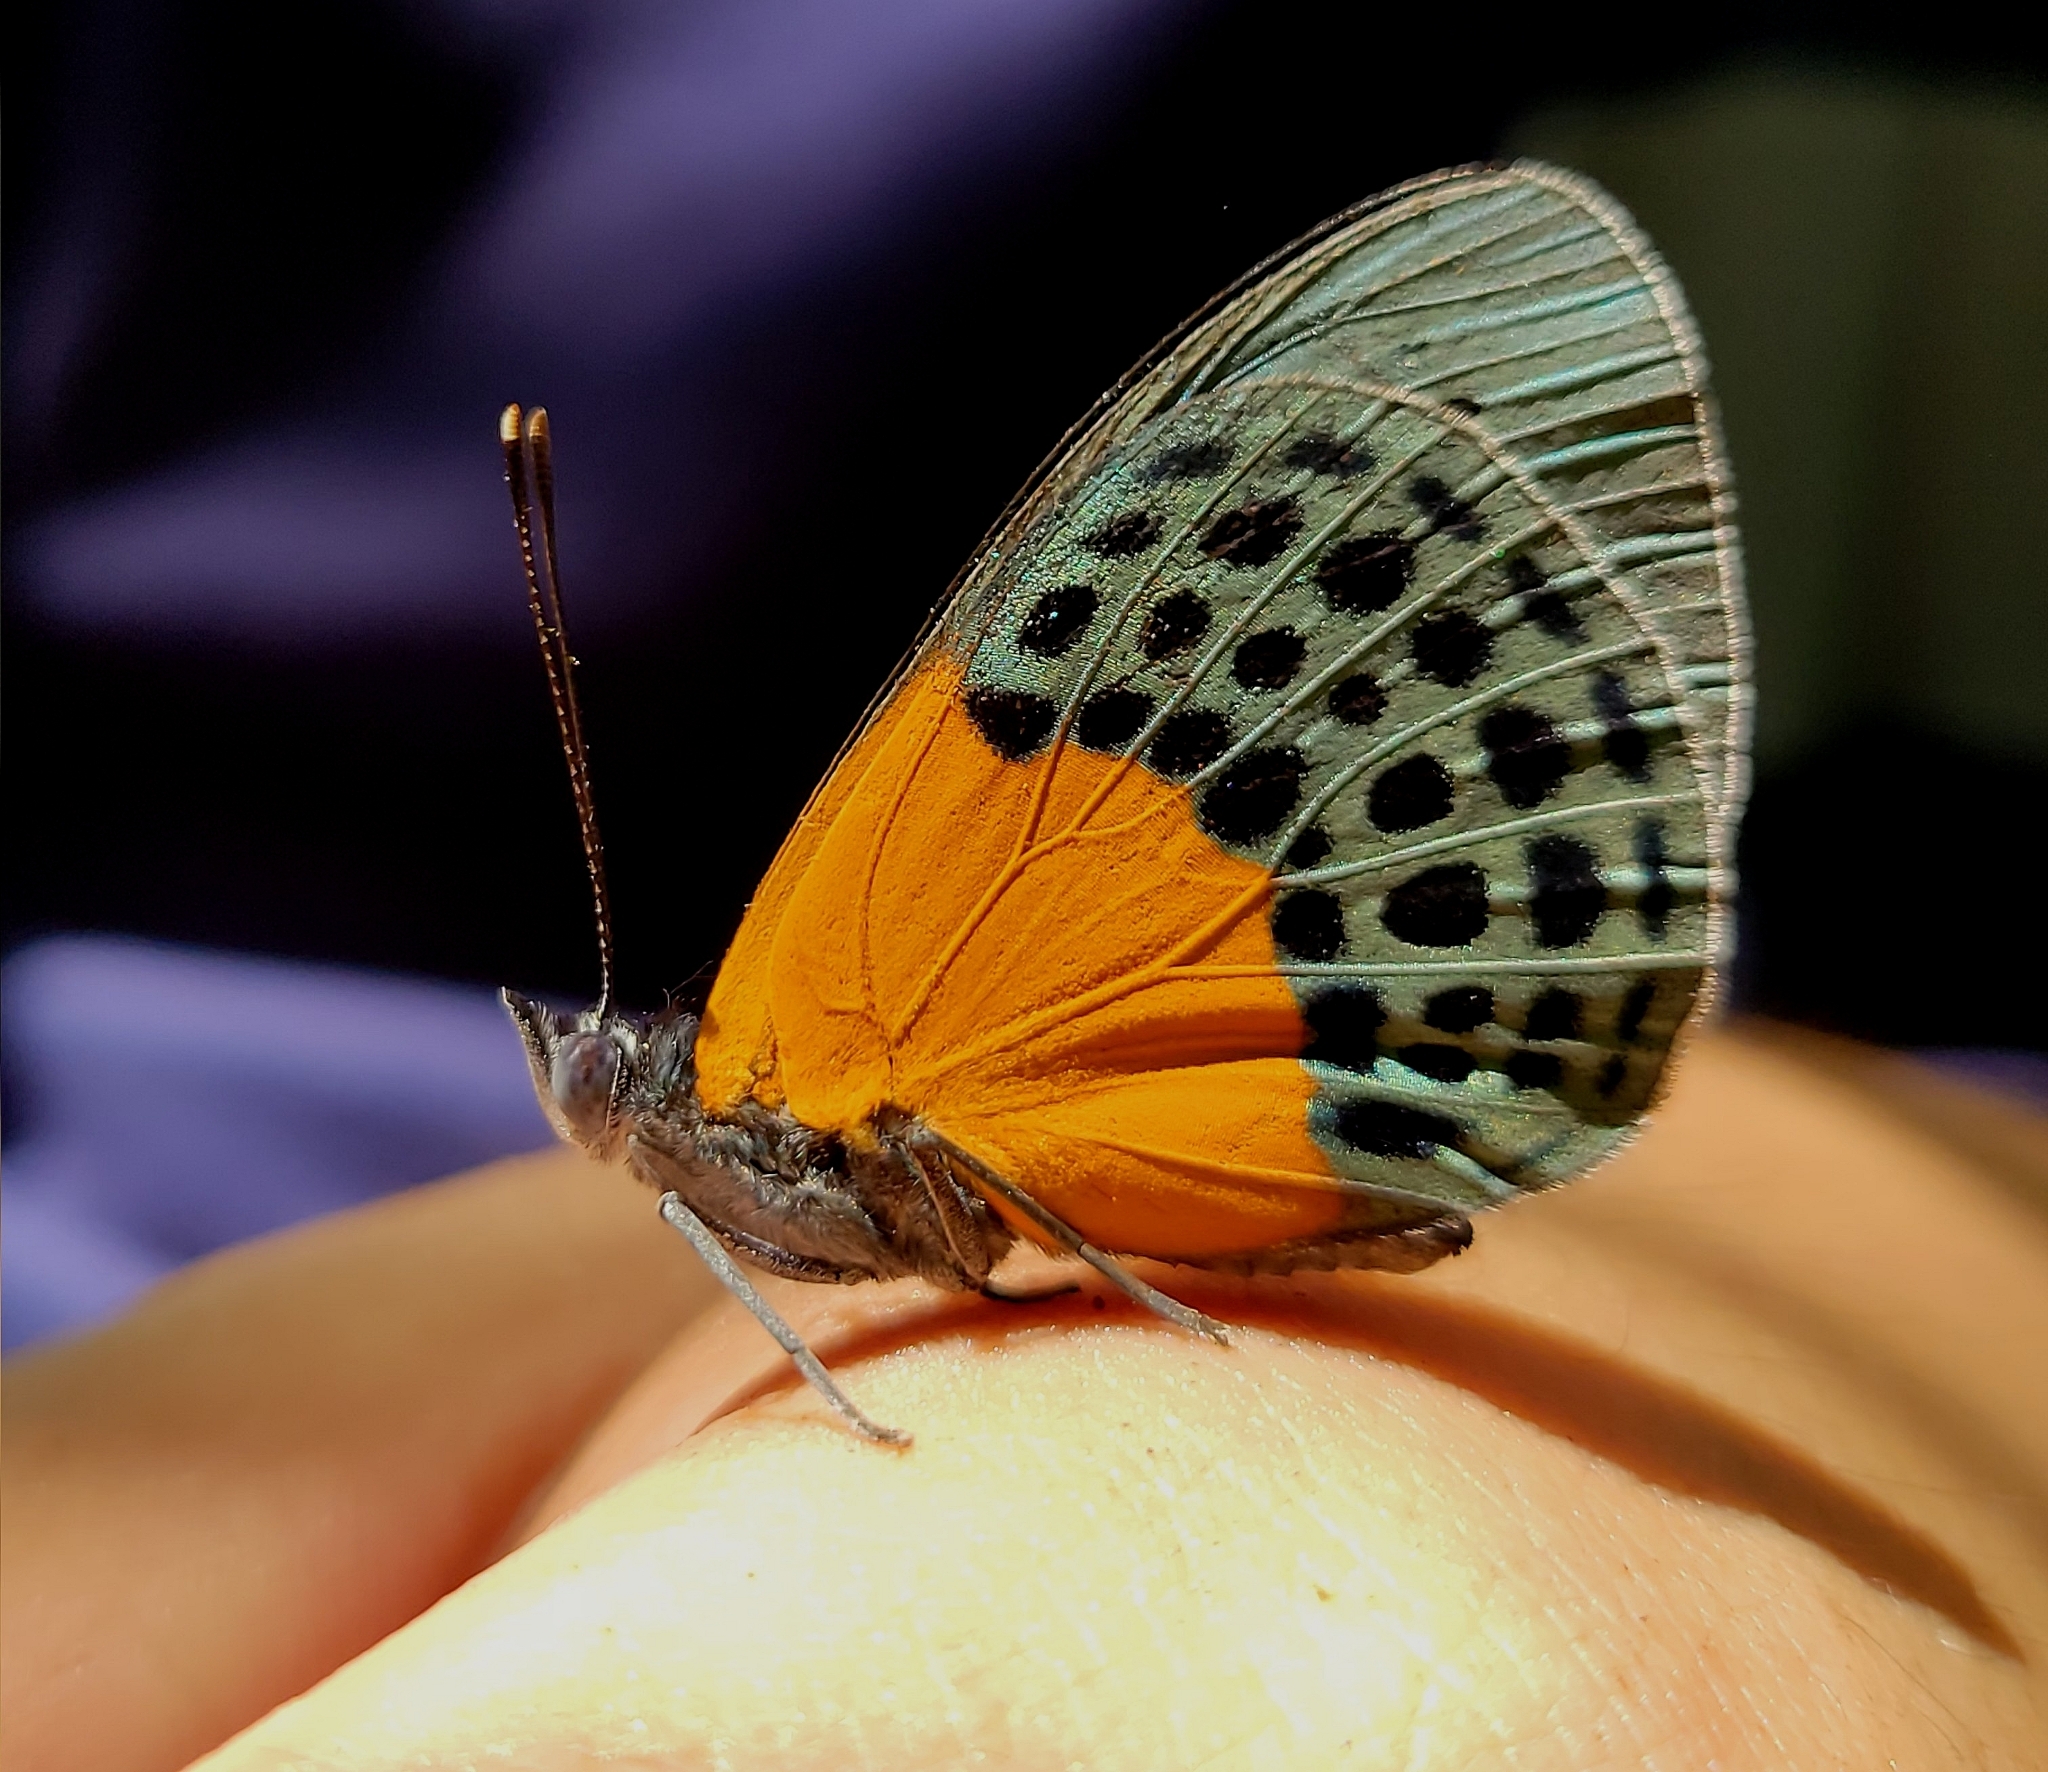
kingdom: Animalia
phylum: Arthropoda
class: Insecta
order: Lepidoptera
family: Nymphalidae
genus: Asterope
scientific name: Asterope
